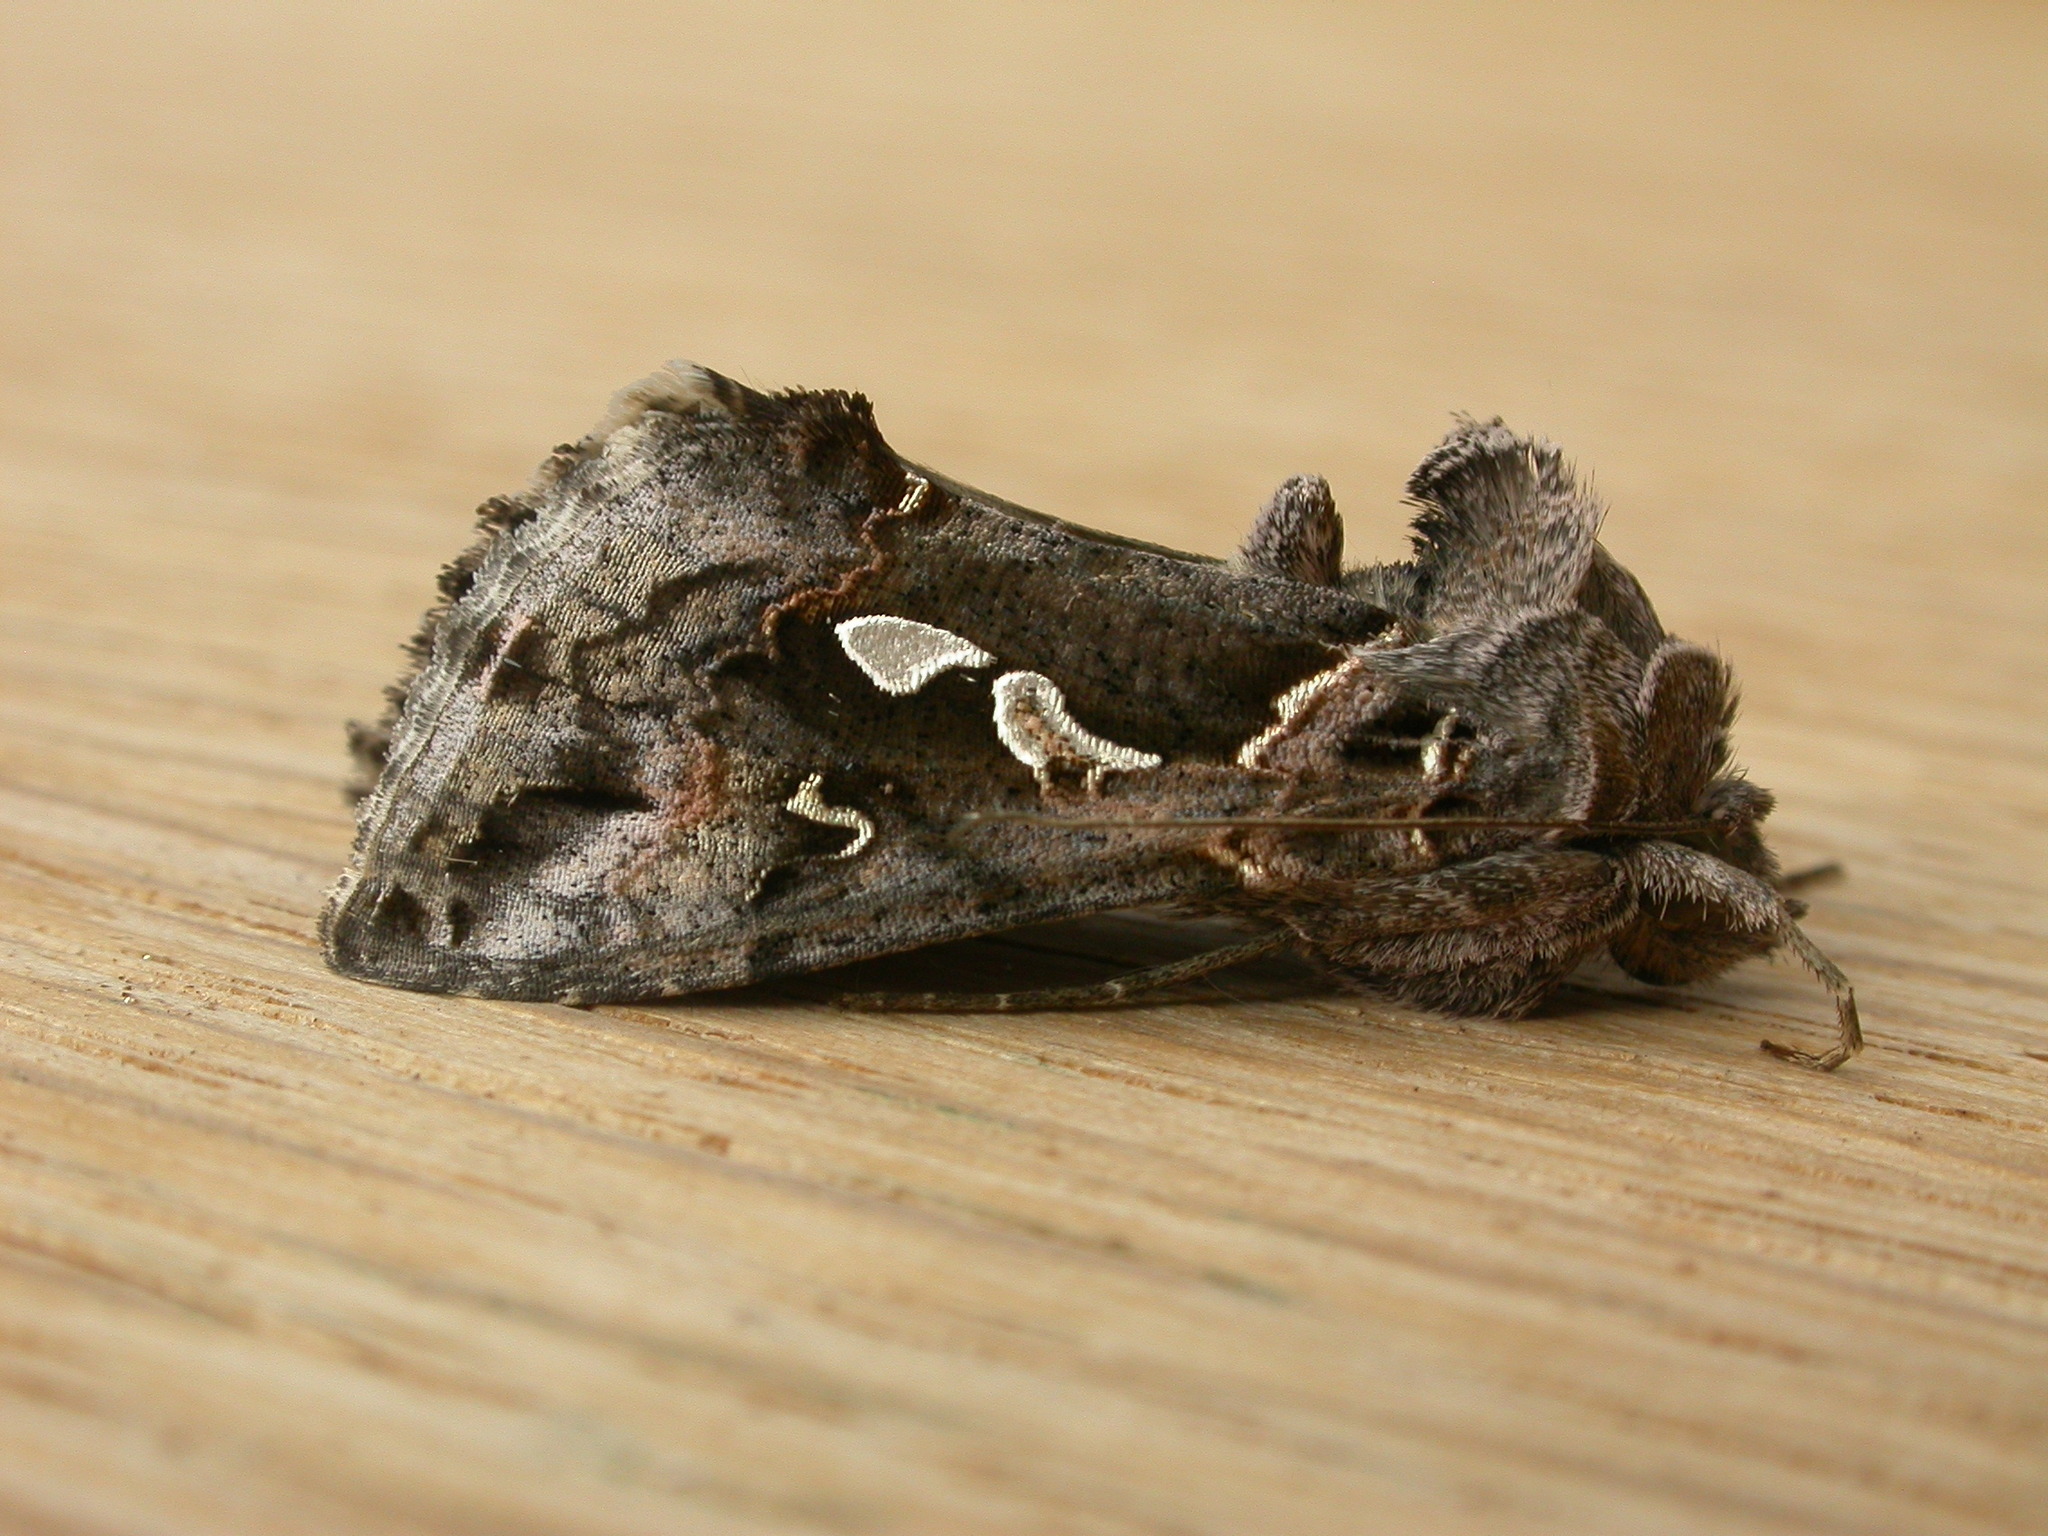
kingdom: Animalia
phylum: Arthropoda
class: Insecta
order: Lepidoptera
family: Noctuidae
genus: Chrysodeixis
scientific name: Chrysodeixis argentifera
